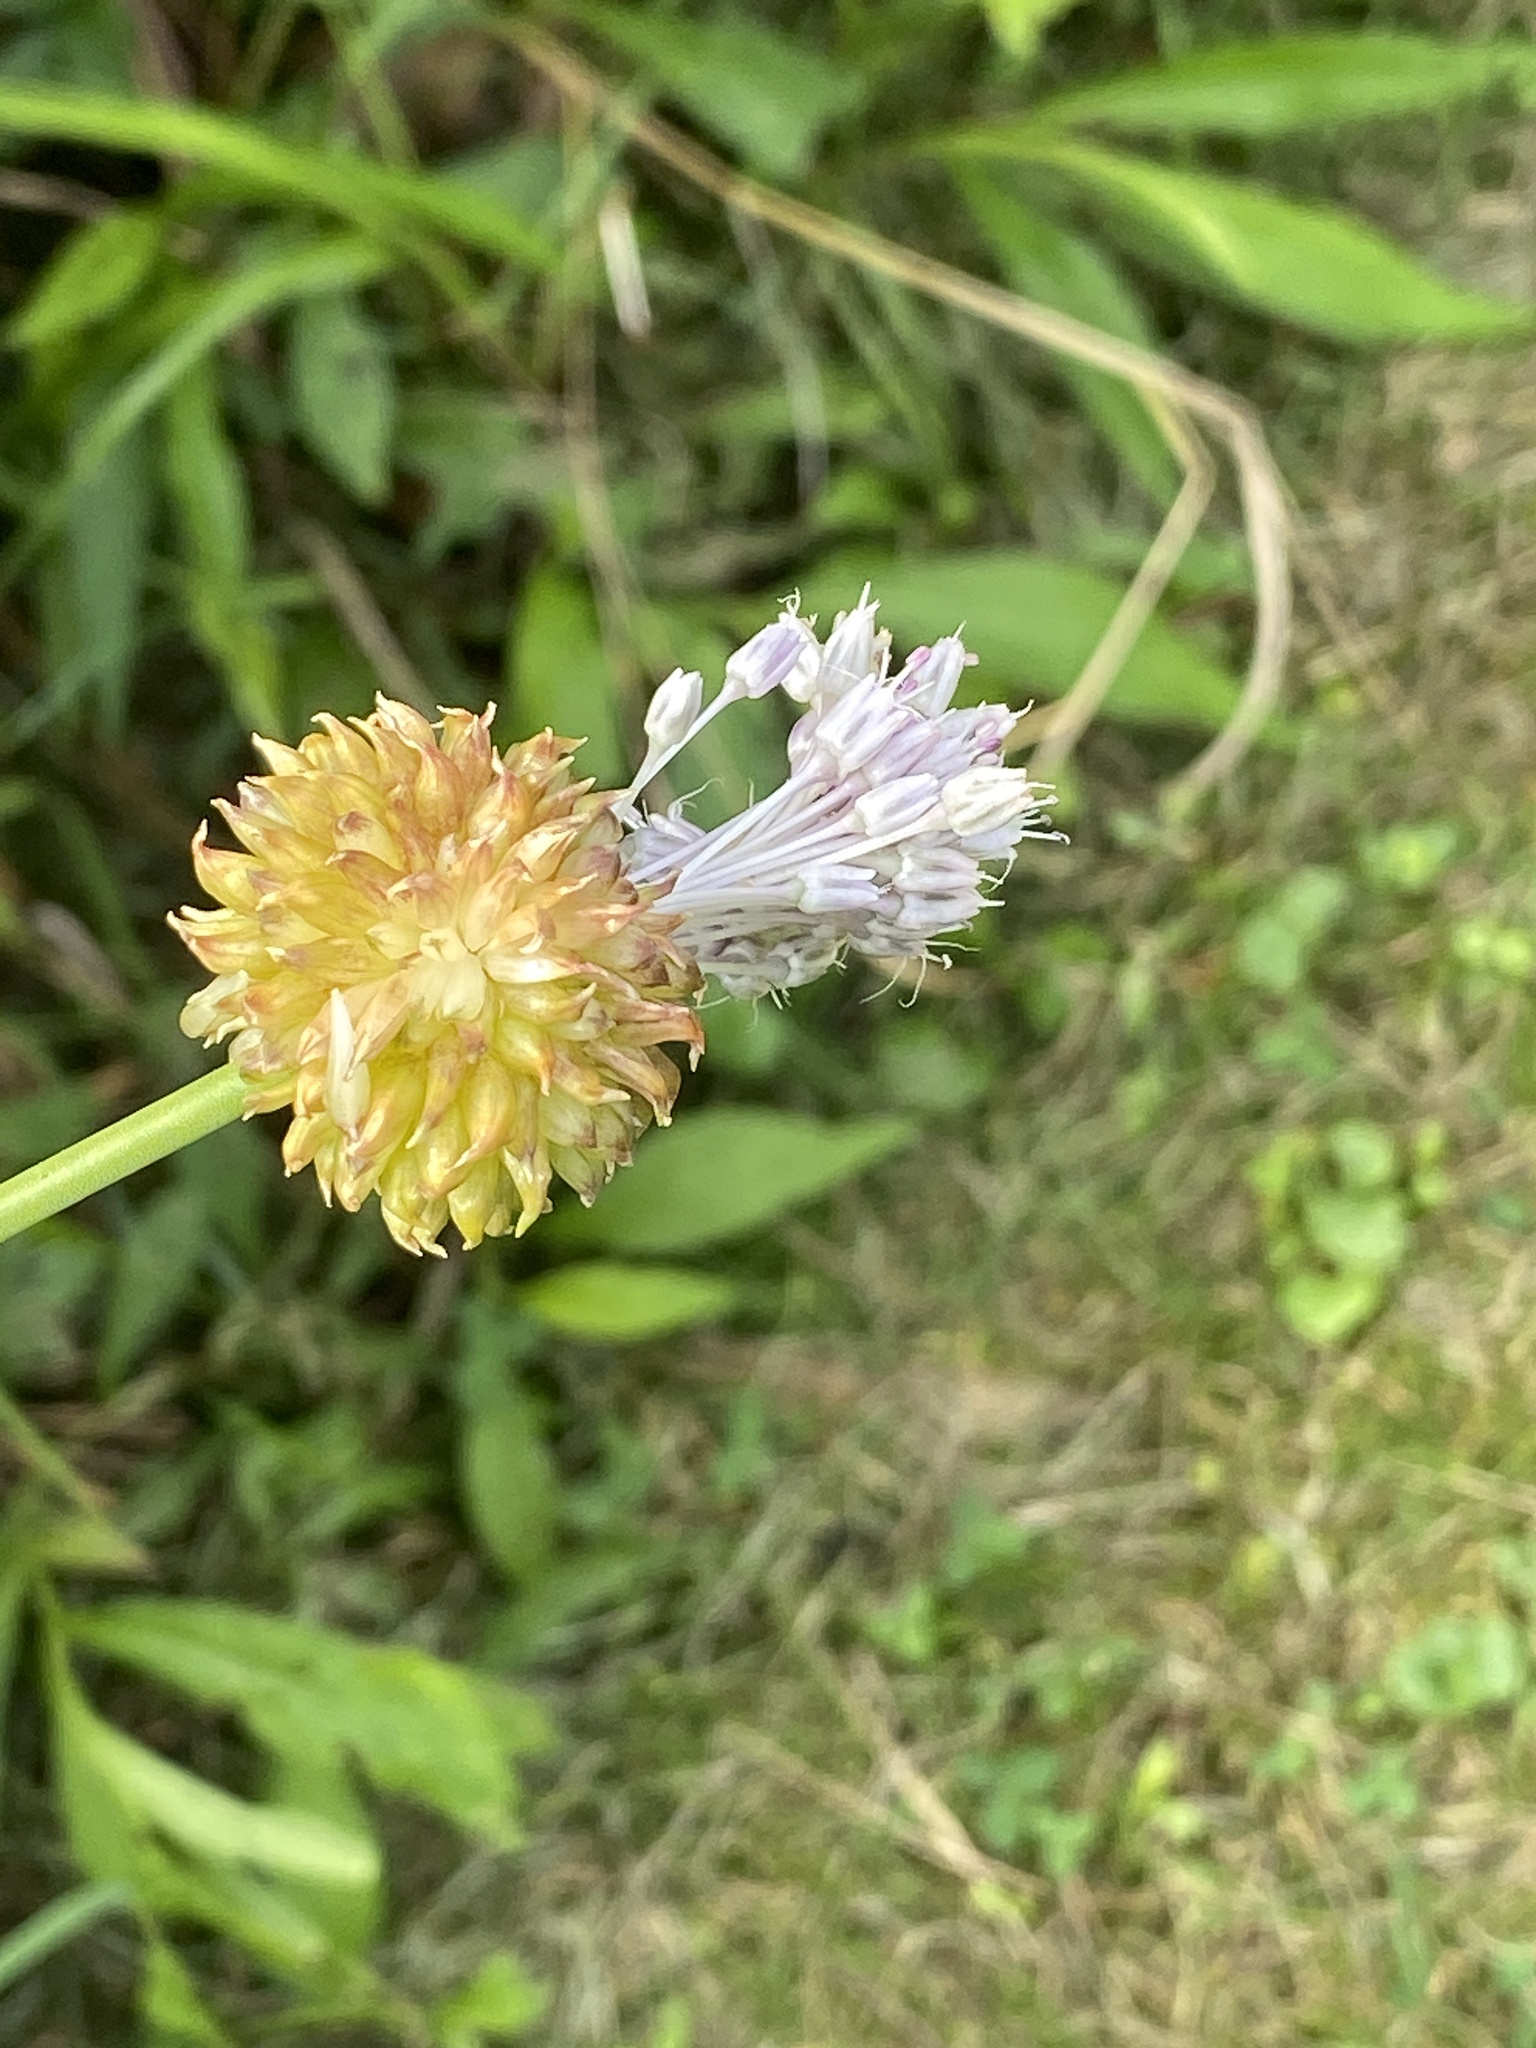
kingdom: Plantae
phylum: Tracheophyta
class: Liliopsida
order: Asparagales
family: Amaryllidaceae
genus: Allium
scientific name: Allium vineale
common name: Crow garlic
